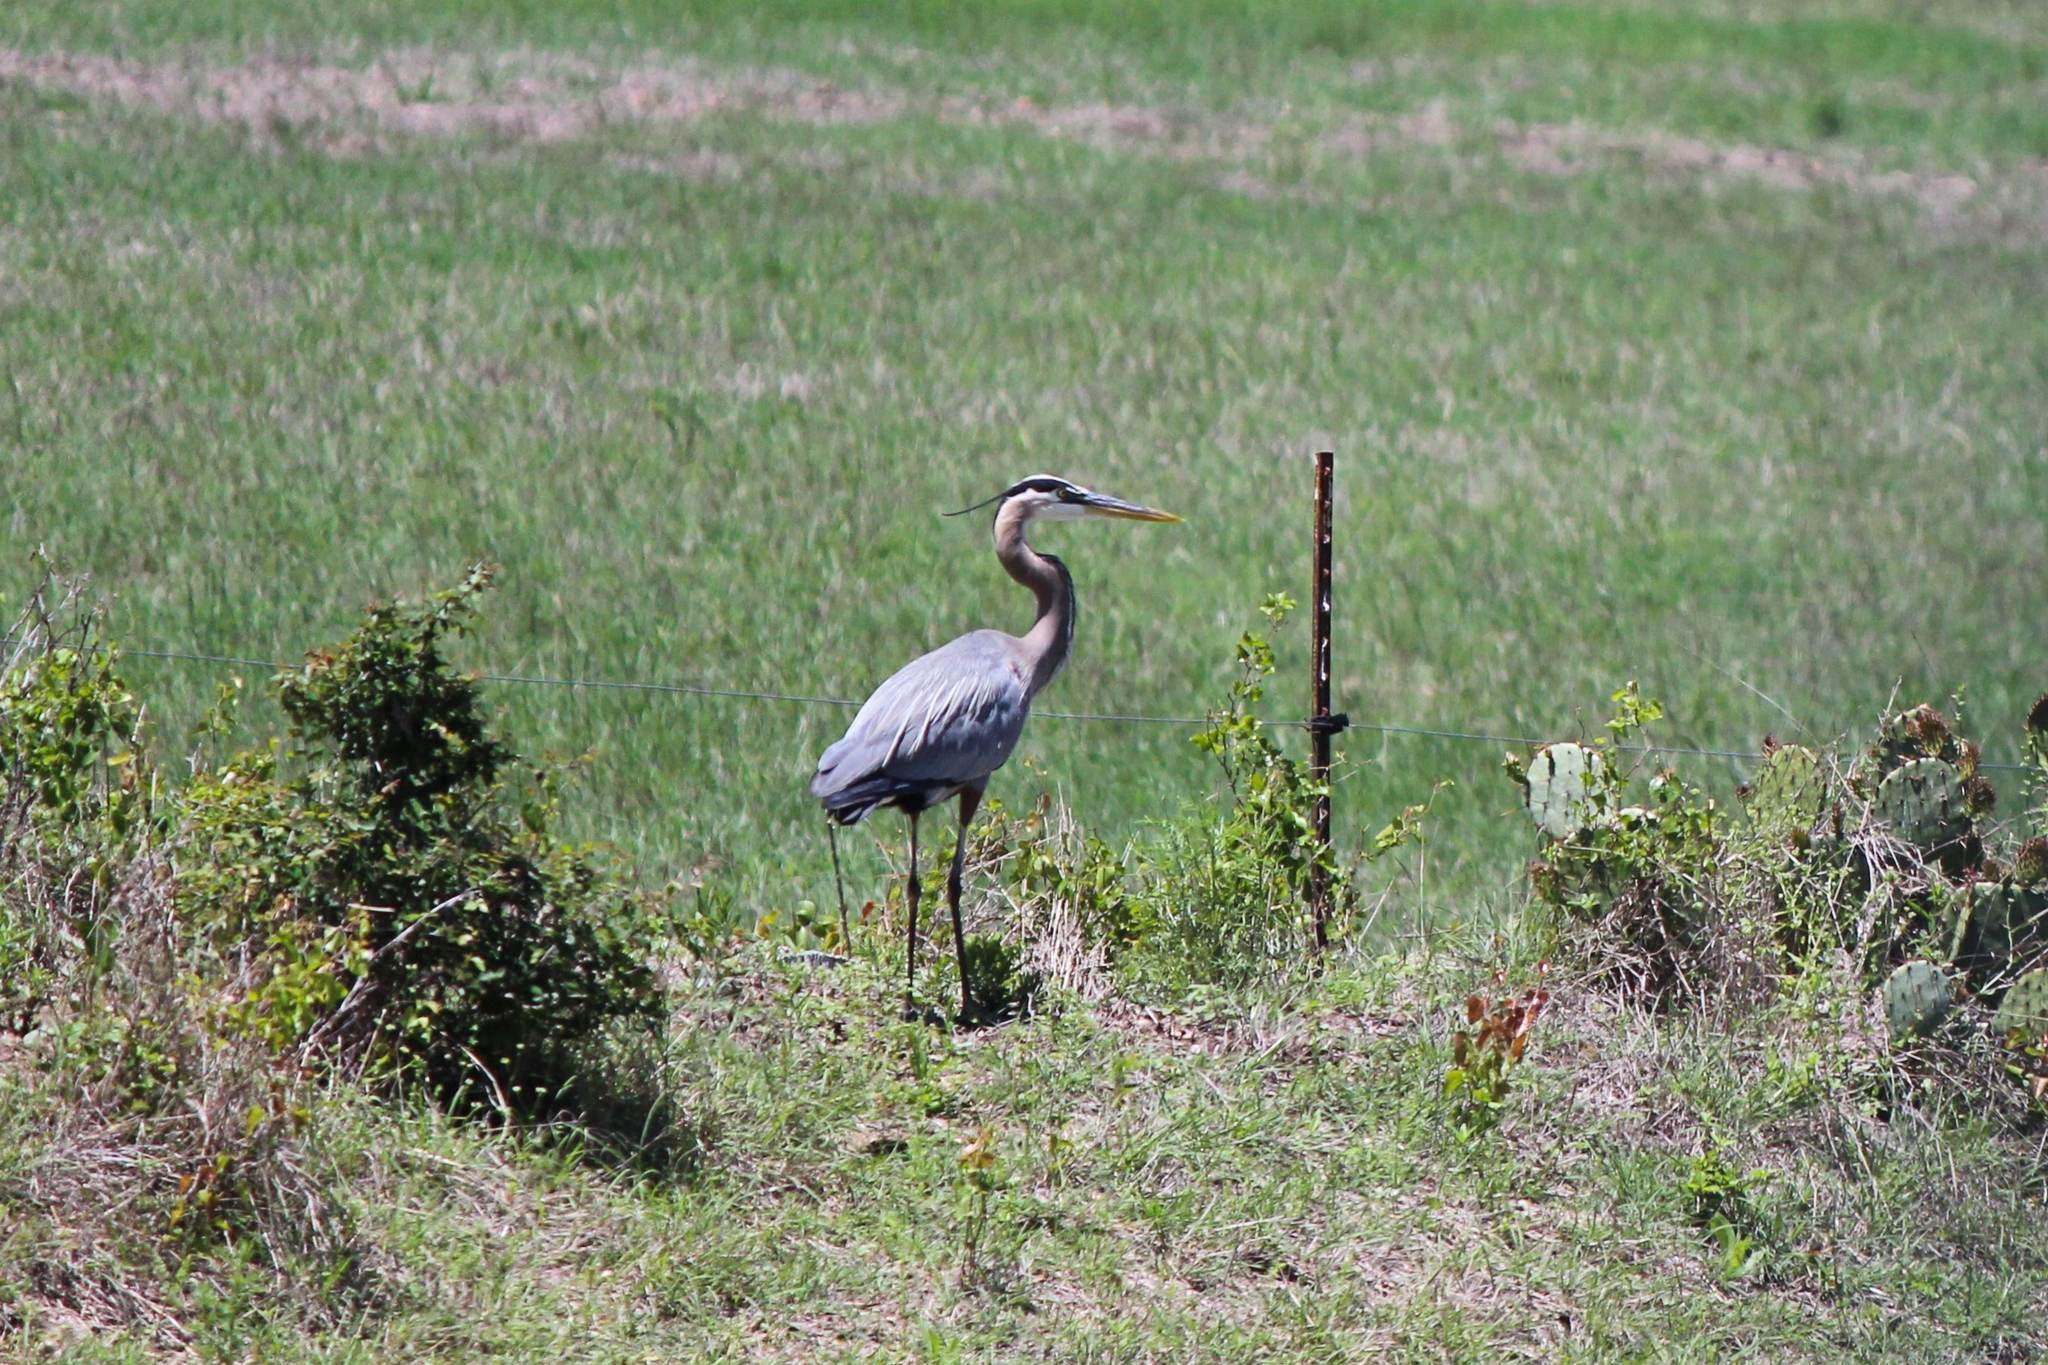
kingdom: Animalia
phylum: Chordata
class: Aves
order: Pelecaniformes
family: Ardeidae
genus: Ardea
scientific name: Ardea herodias
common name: Great blue heron
